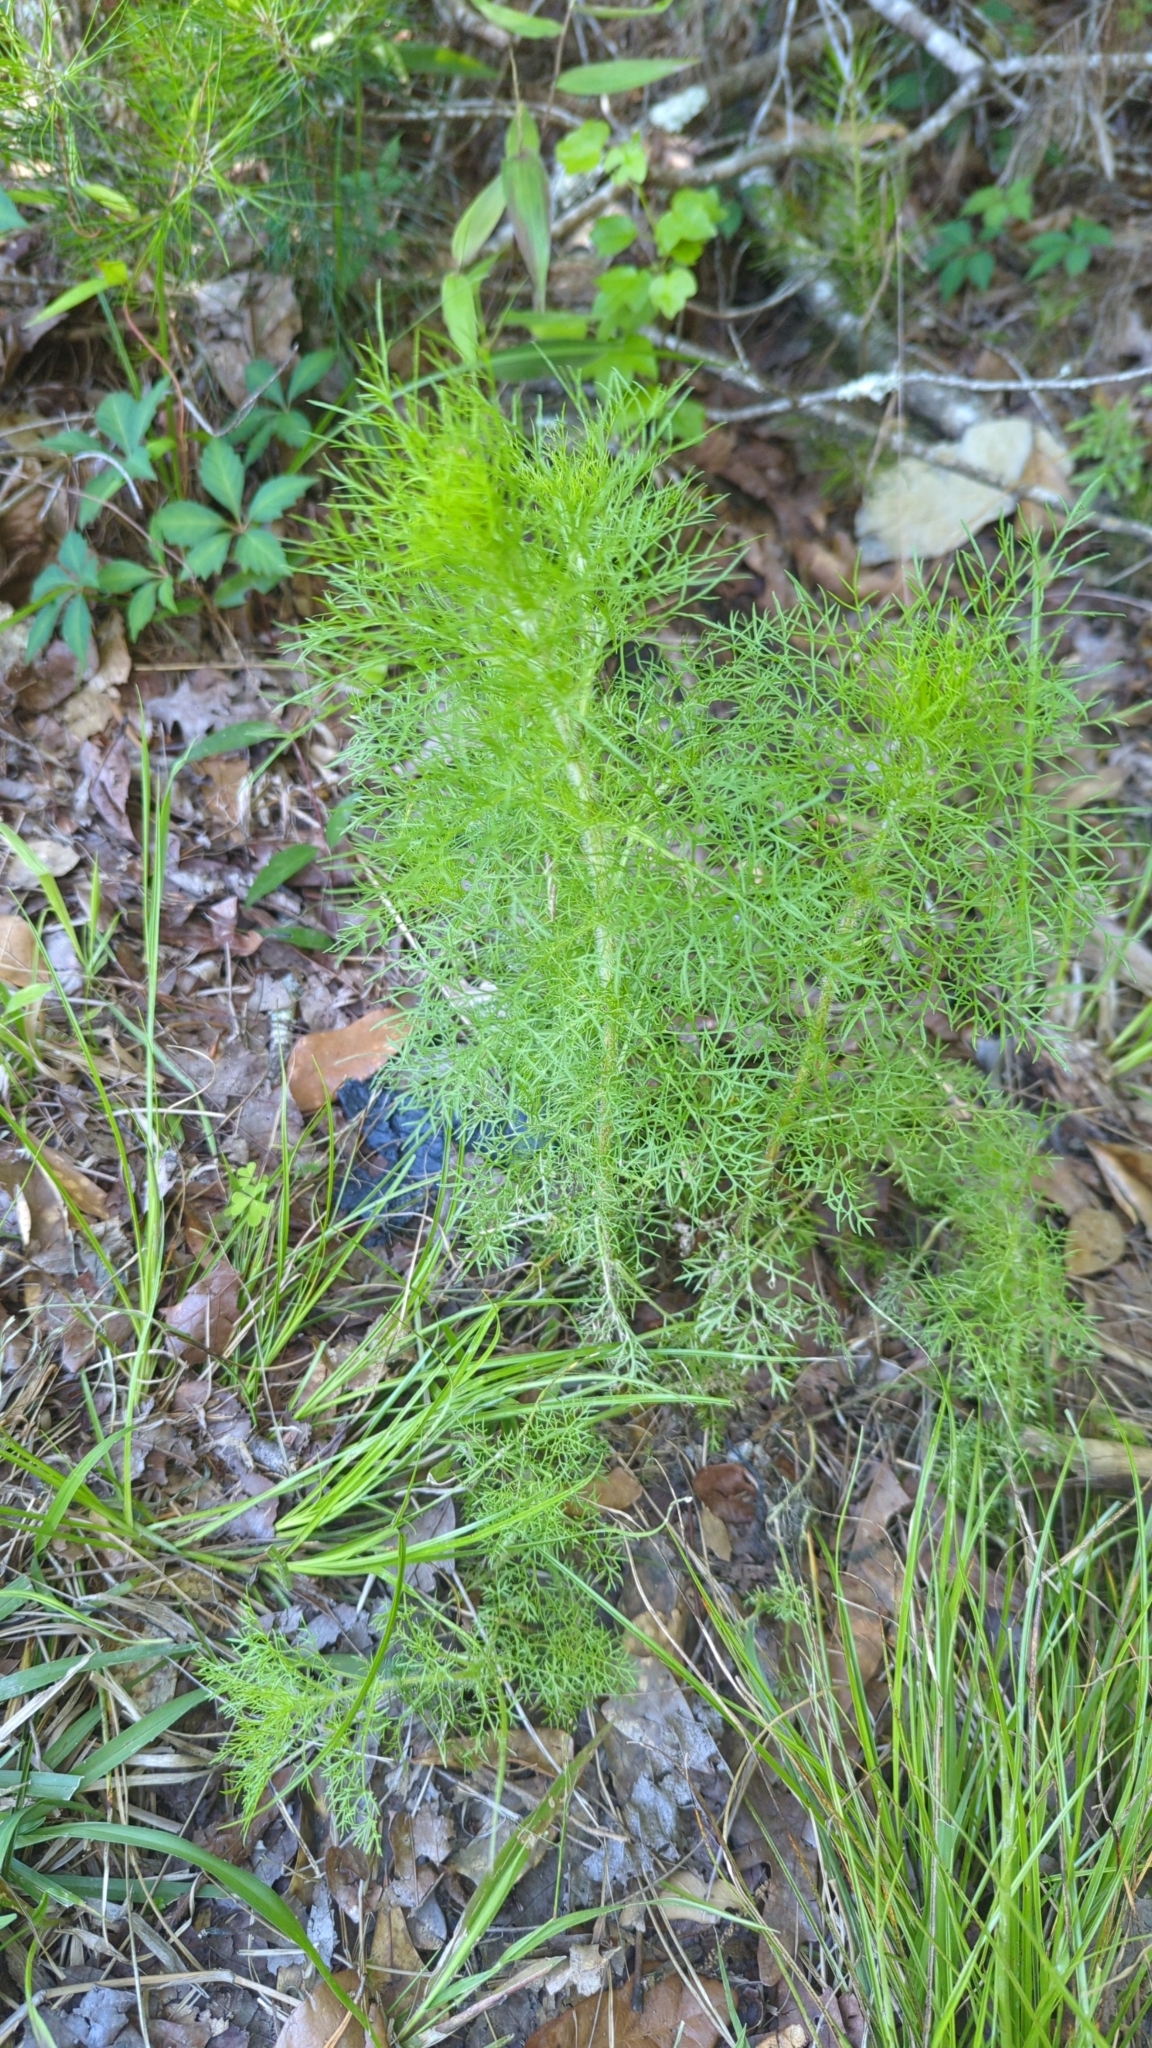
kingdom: Plantae
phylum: Tracheophyta
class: Magnoliopsida
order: Asterales
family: Asteraceae
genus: Eupatorium
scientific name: Eupatorium capillifolium
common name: Dog-fennel
